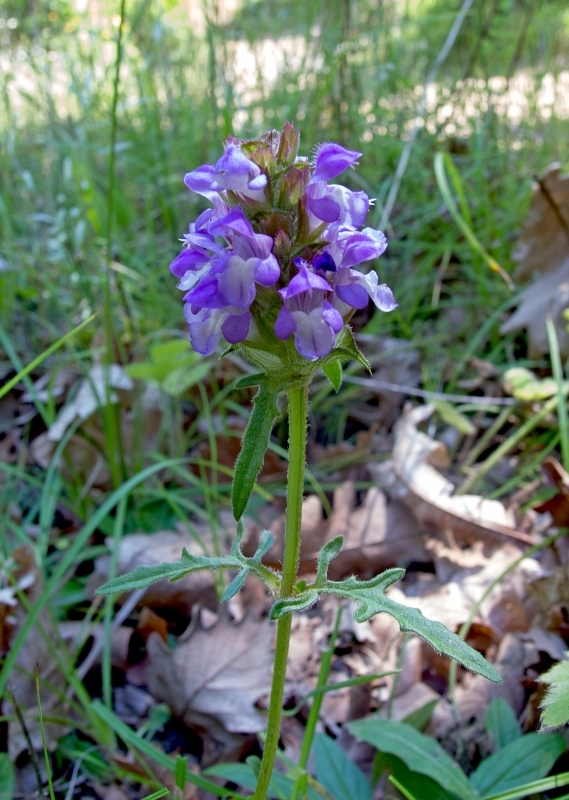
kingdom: Plantae
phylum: Tracheophyta
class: Magnoliopsida
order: Lamiales
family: Lamiaceae
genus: Prunella
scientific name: Prunella intermedia
